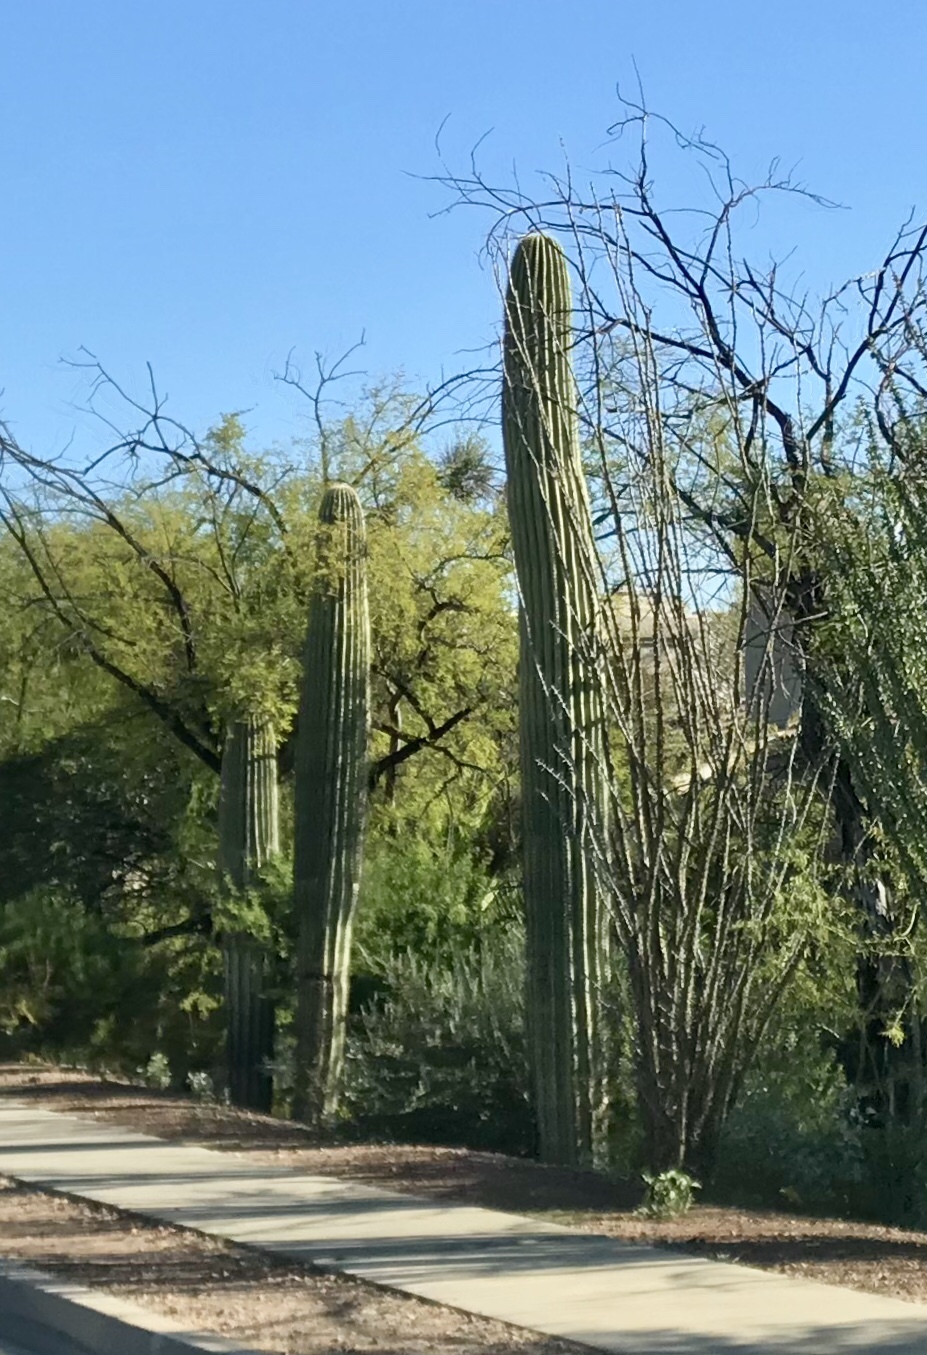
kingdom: Plantae
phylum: Tracheophyta
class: Magnoliopsida
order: Caryophyllales
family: Cactaceae
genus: Carnegiea
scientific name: Carnegiea gigantea
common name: Saguaro
